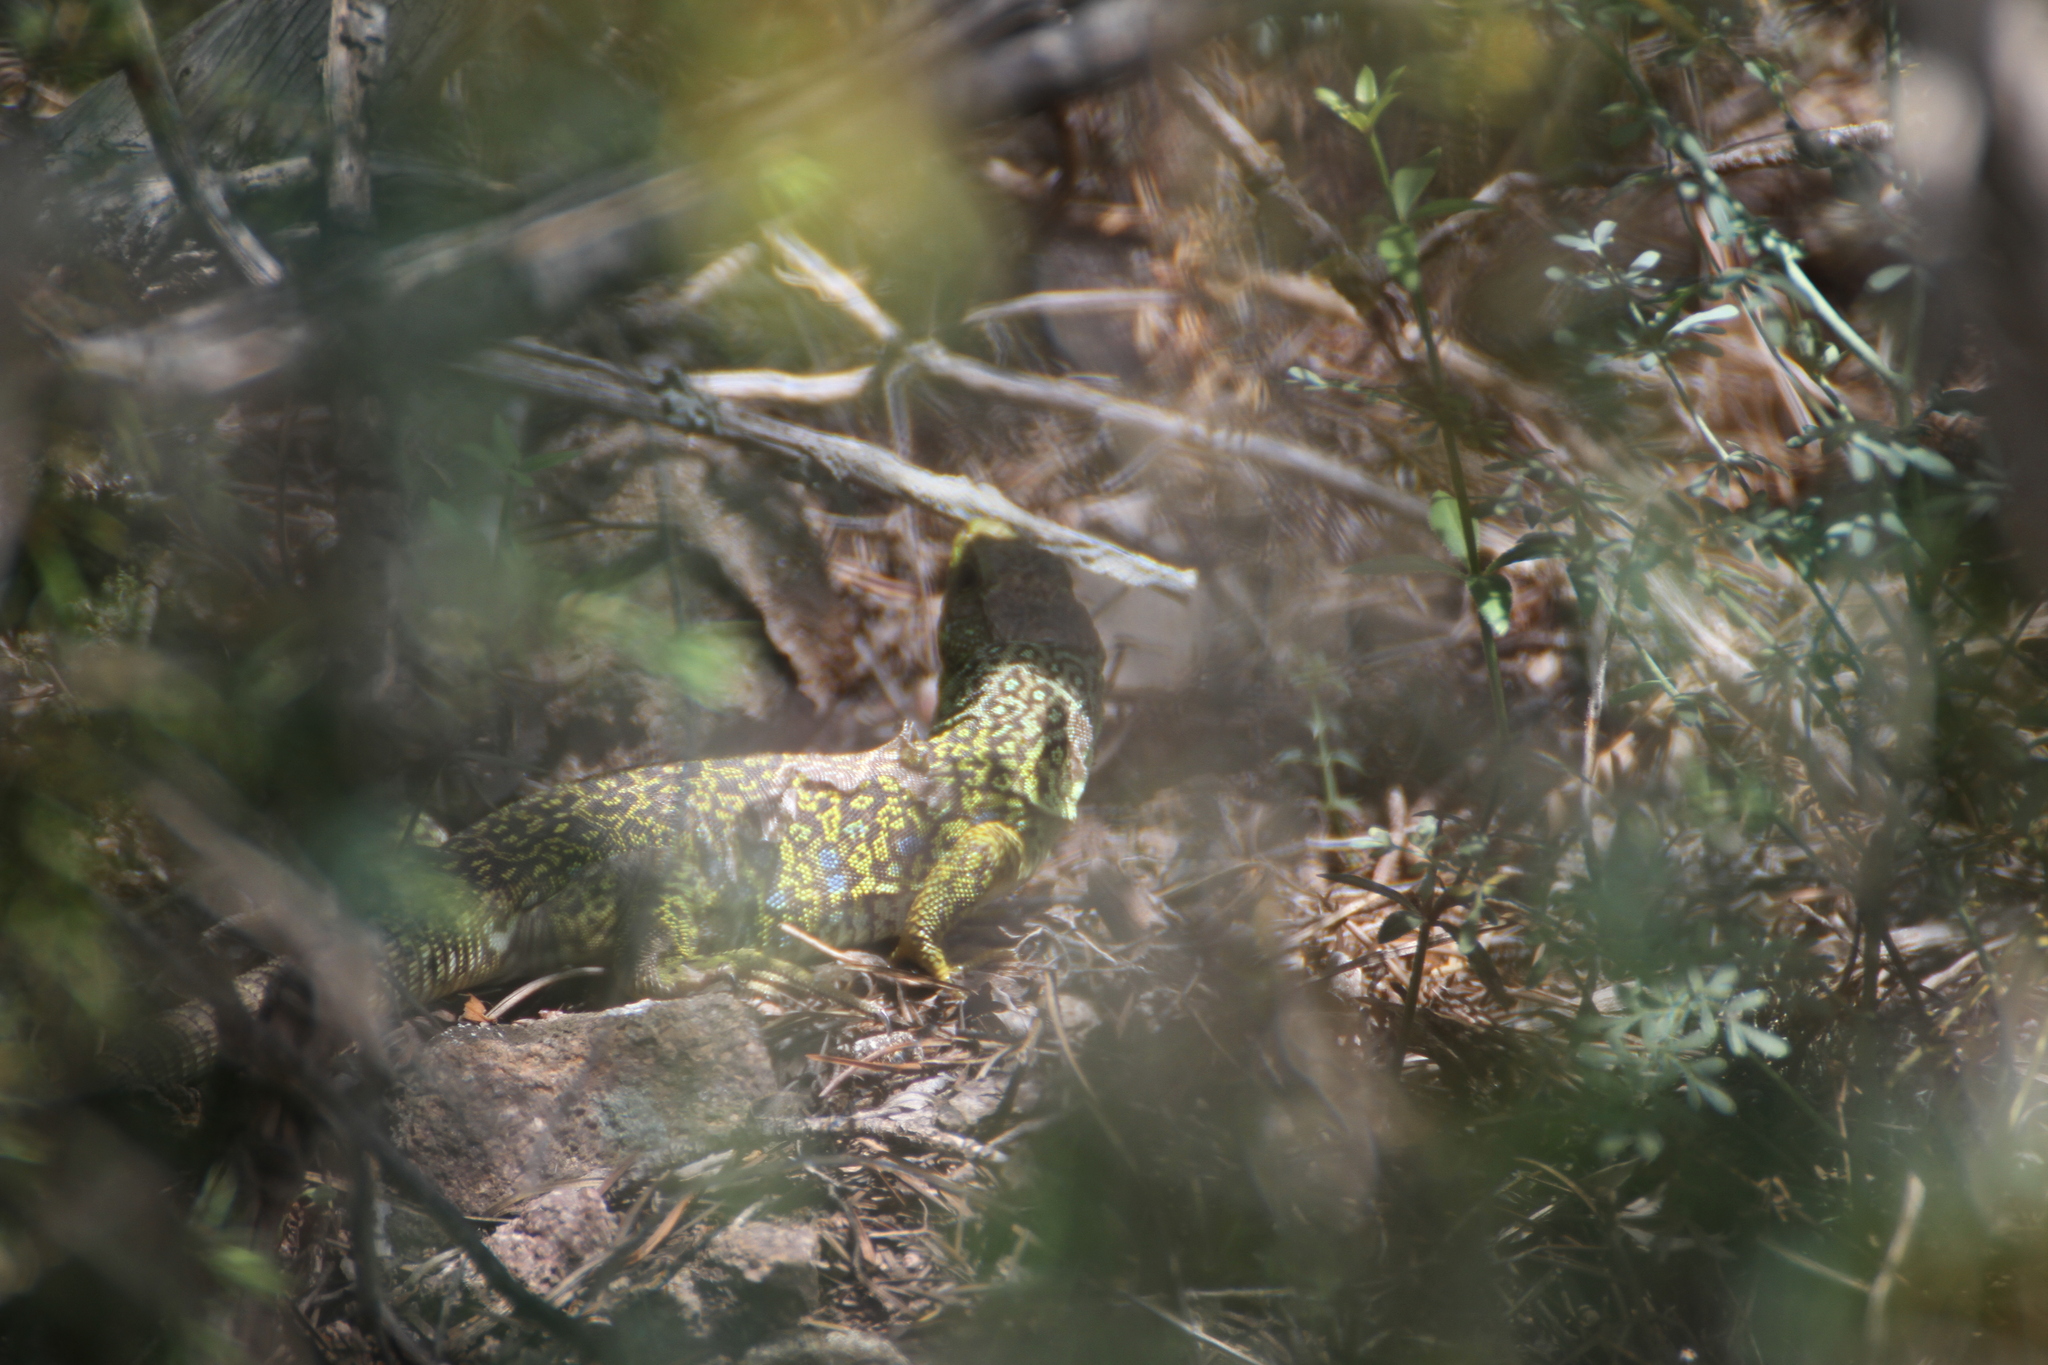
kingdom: Animalia
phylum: Chordata
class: Squamata
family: Lacertidae
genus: Timon
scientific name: Timon lepidus
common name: Ocellated lizard
